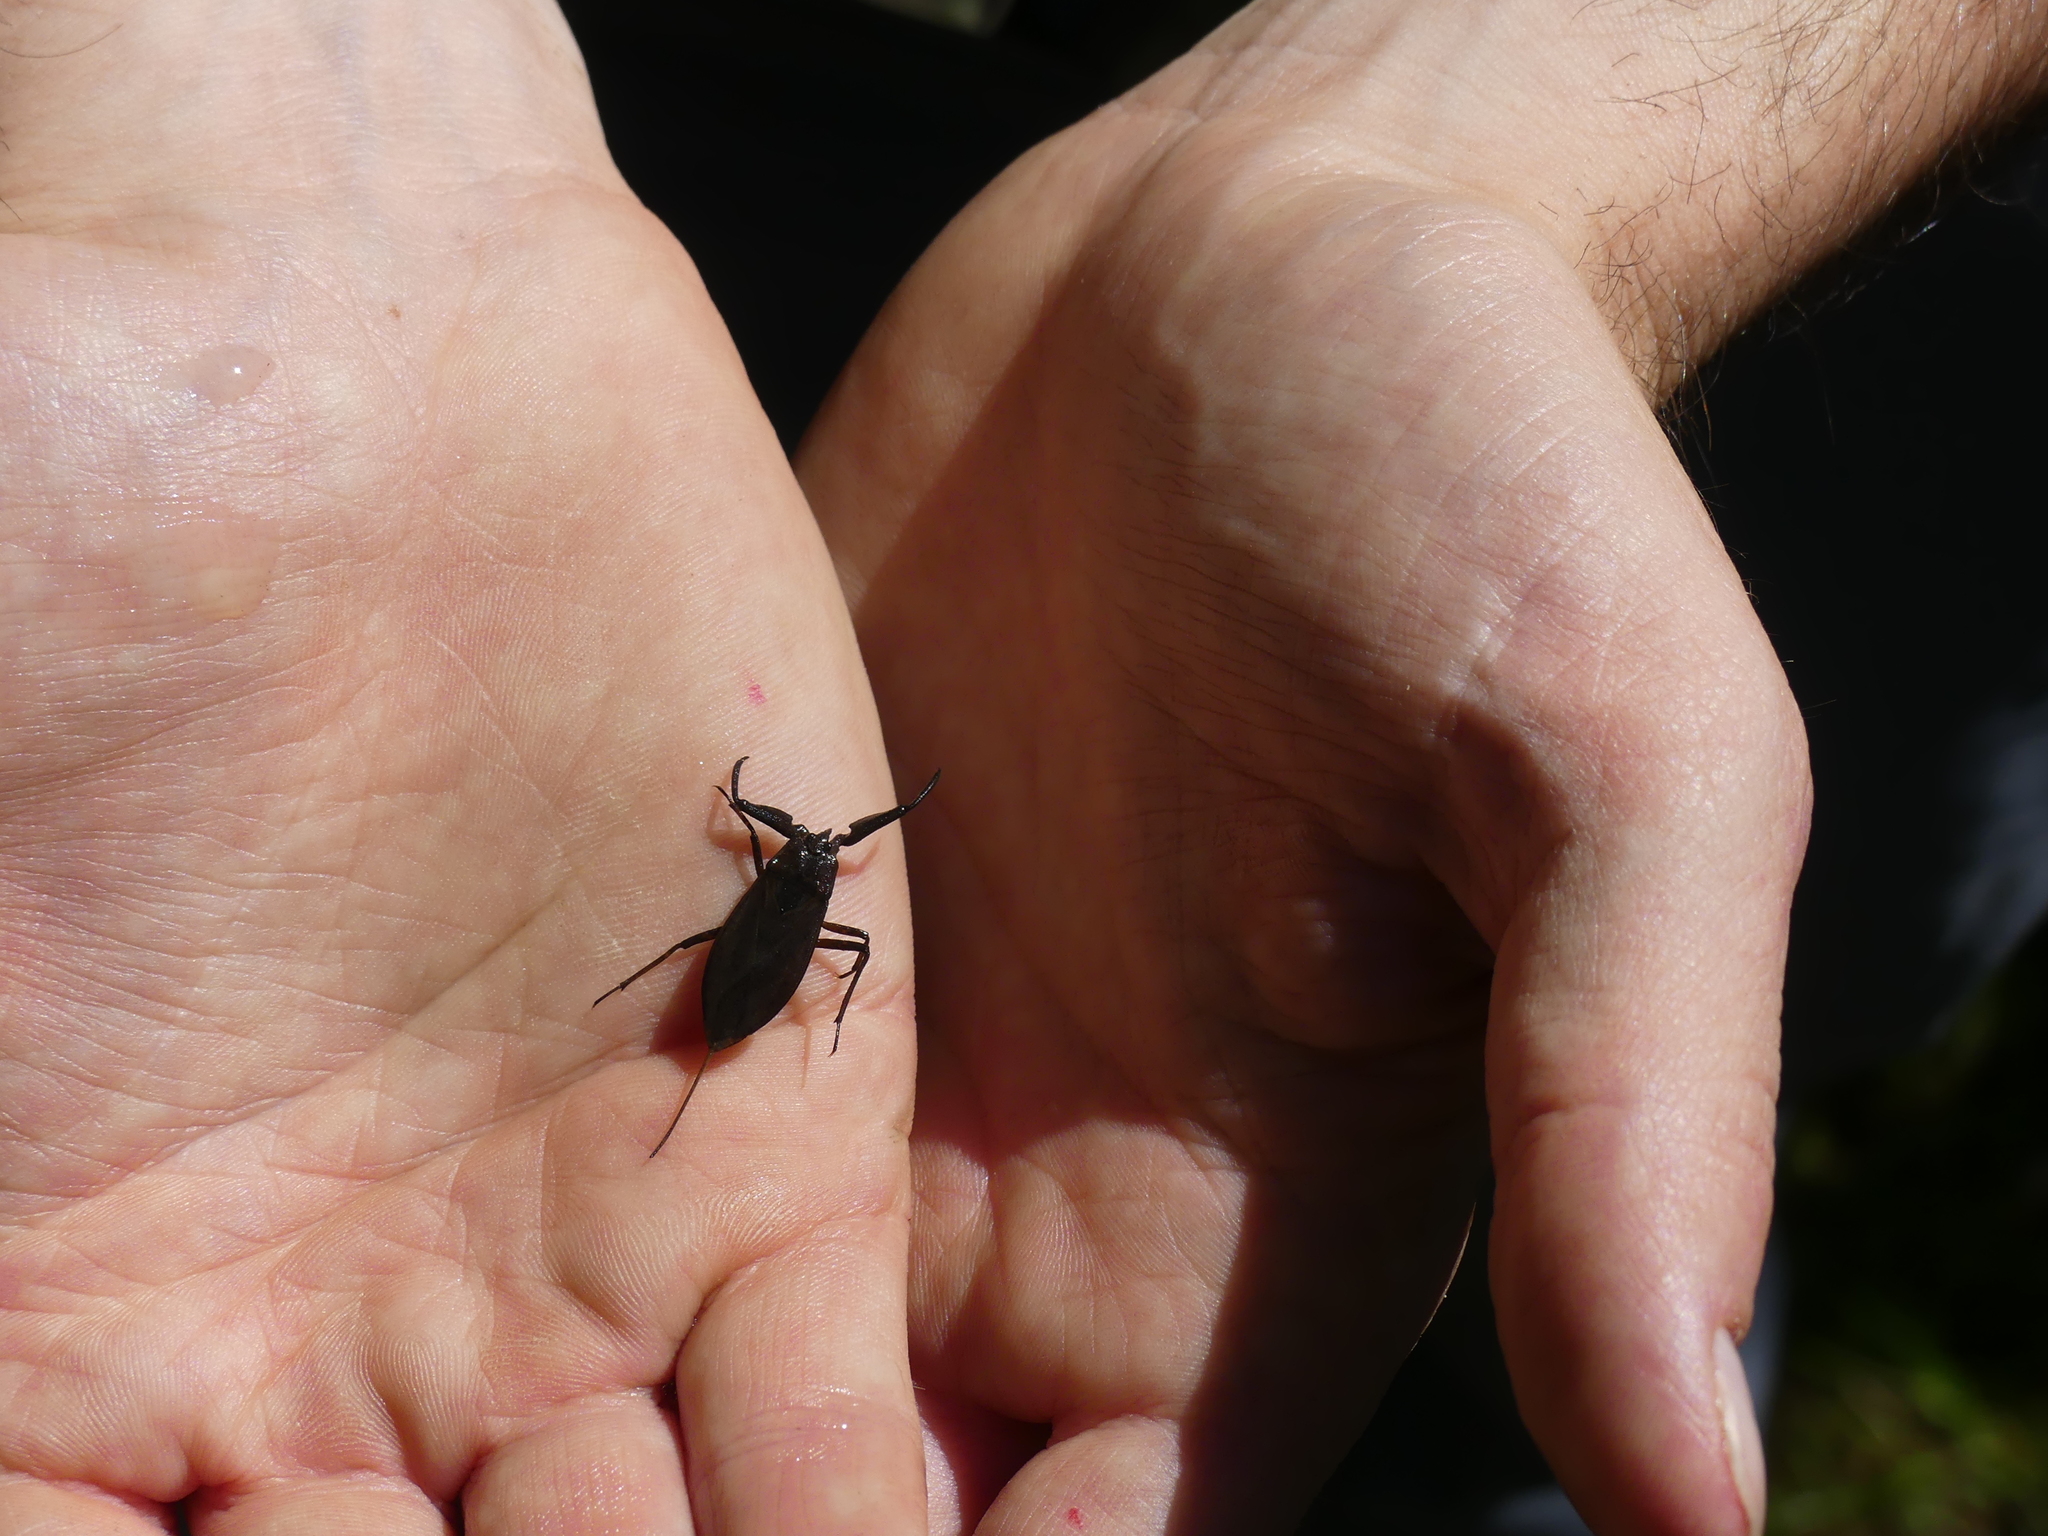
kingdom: Animalia
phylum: Arthropoda
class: Insecta
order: Hemiptera
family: Nepidae
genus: Nepa
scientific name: Nepa cinerea
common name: Water scorpion
